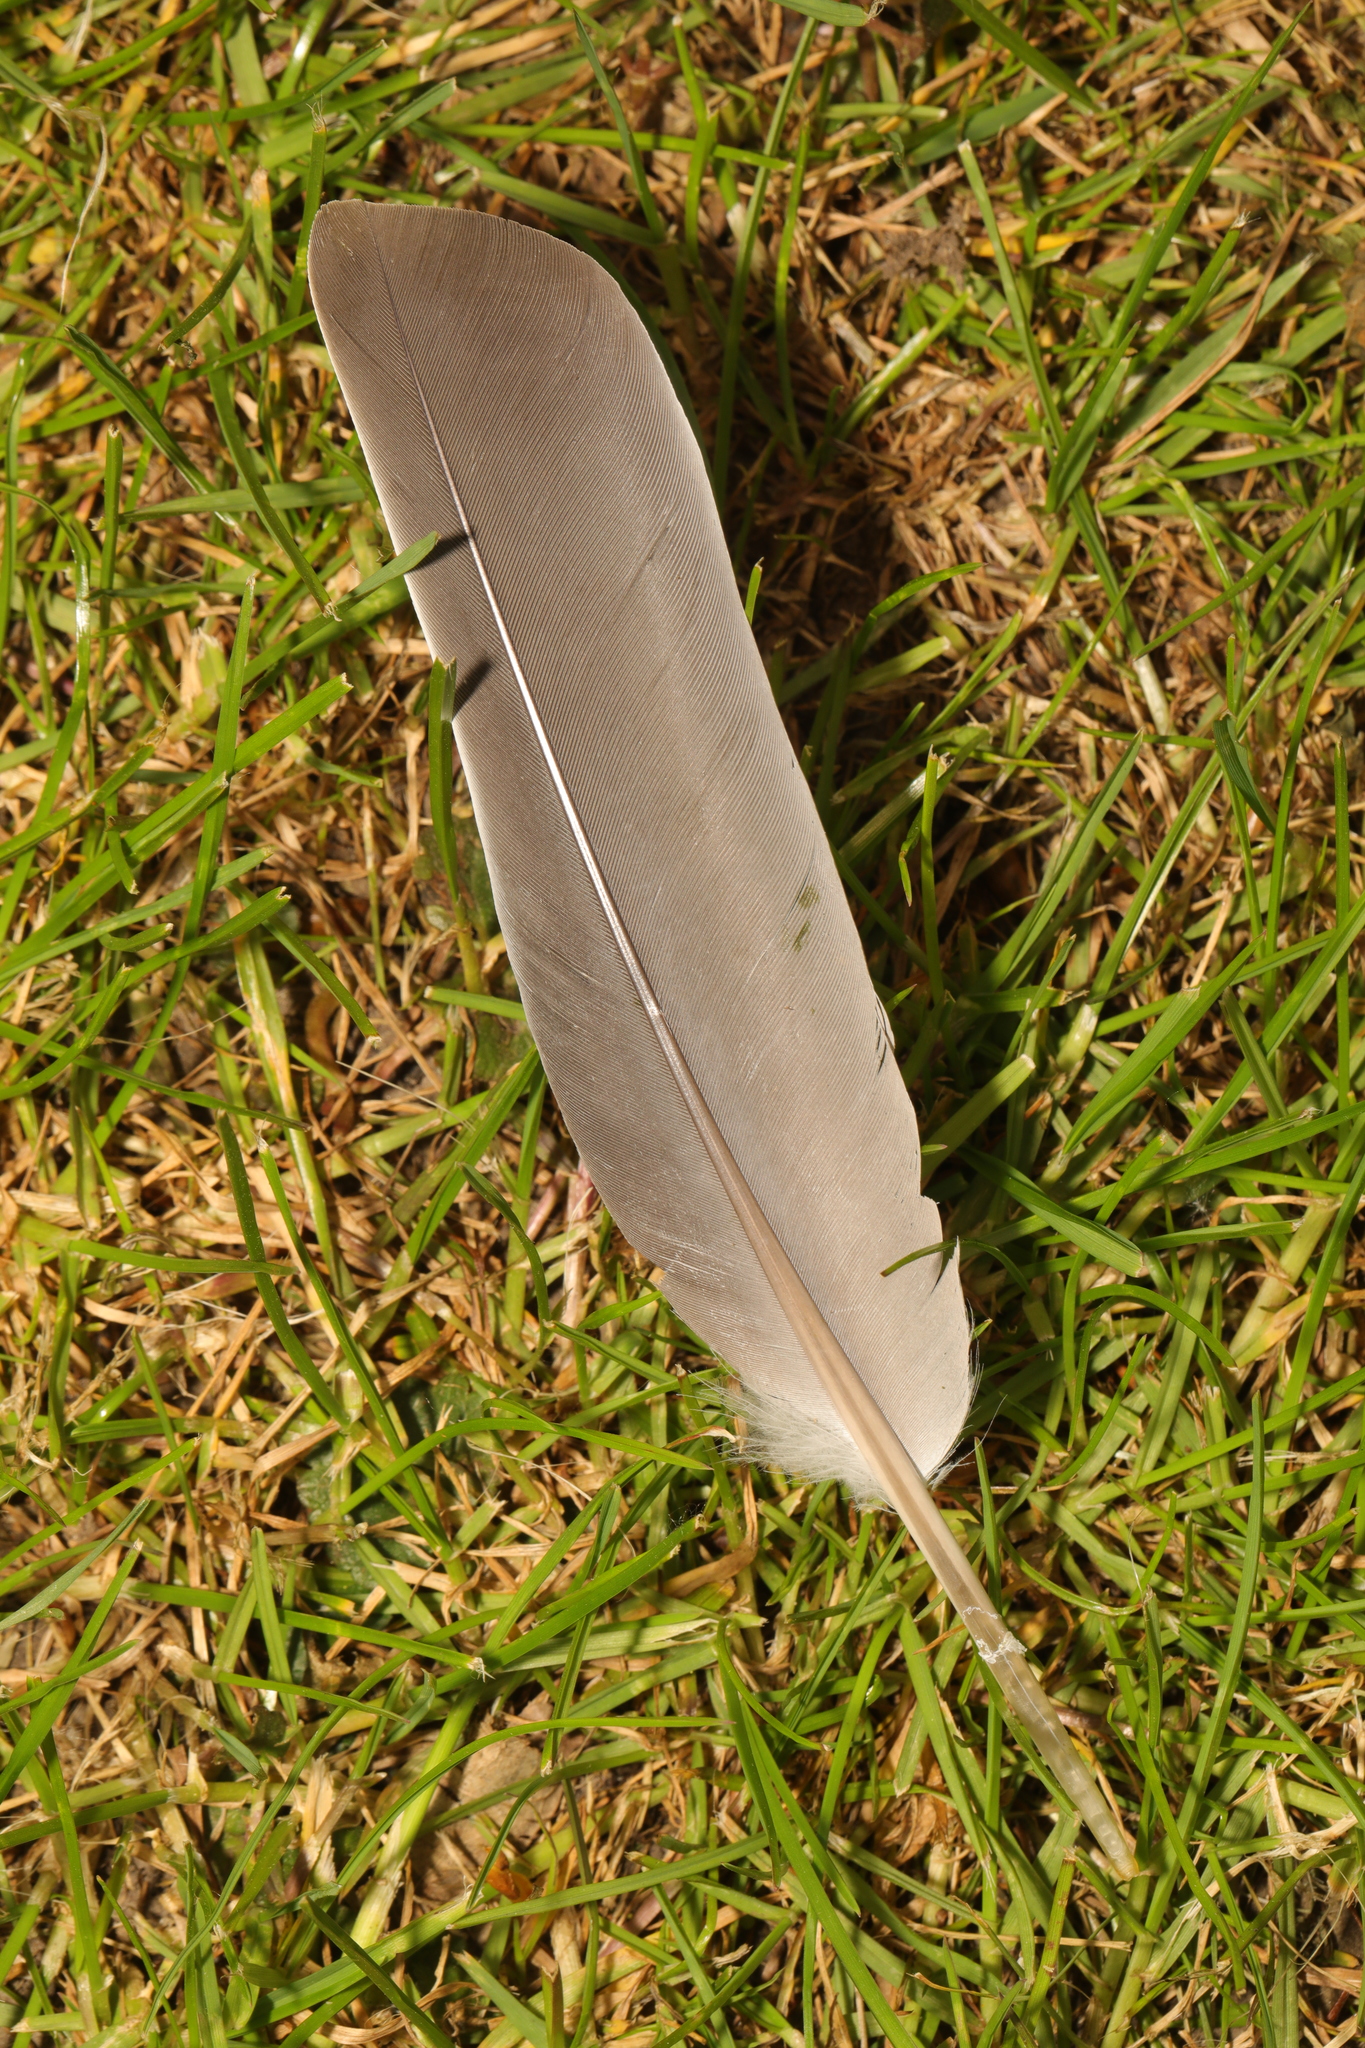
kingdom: Animalia
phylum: Chordata
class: Aves
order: Columbiformes
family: Columbidae
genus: Columba
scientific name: Columba palumbus
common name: Common wood pigeon
